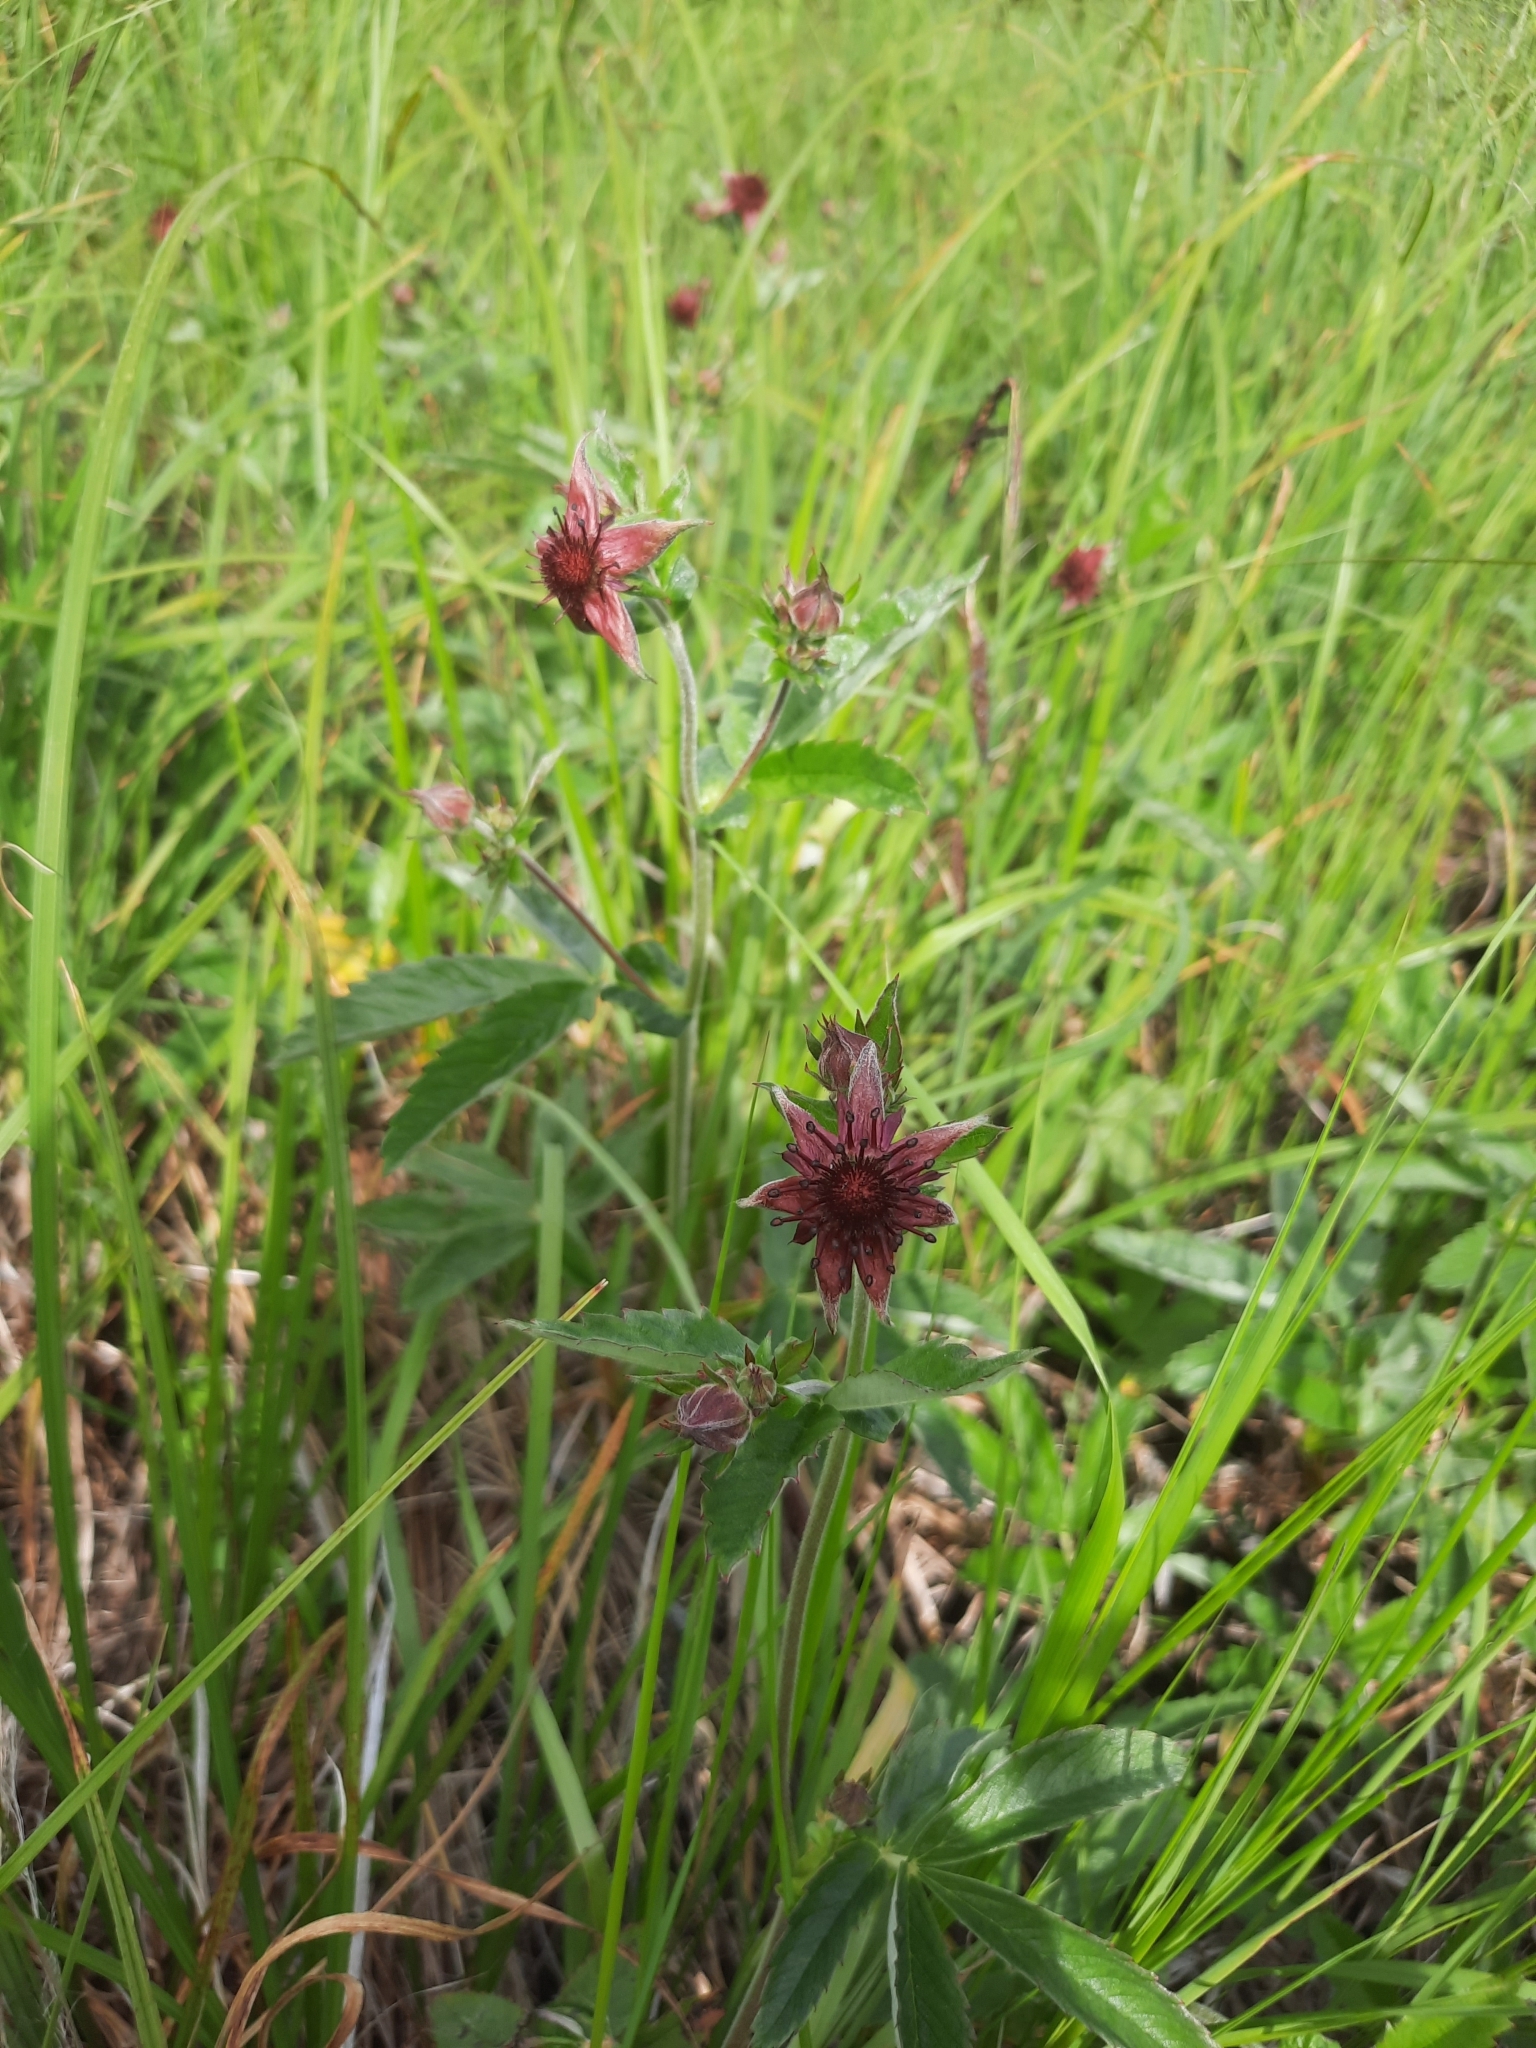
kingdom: Plantae
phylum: Tracheophyta
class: Magnoliopsida
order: Rosales
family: Rosaceae
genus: Comarum
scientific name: Comarum palustre
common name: Marsh cinquefoil
